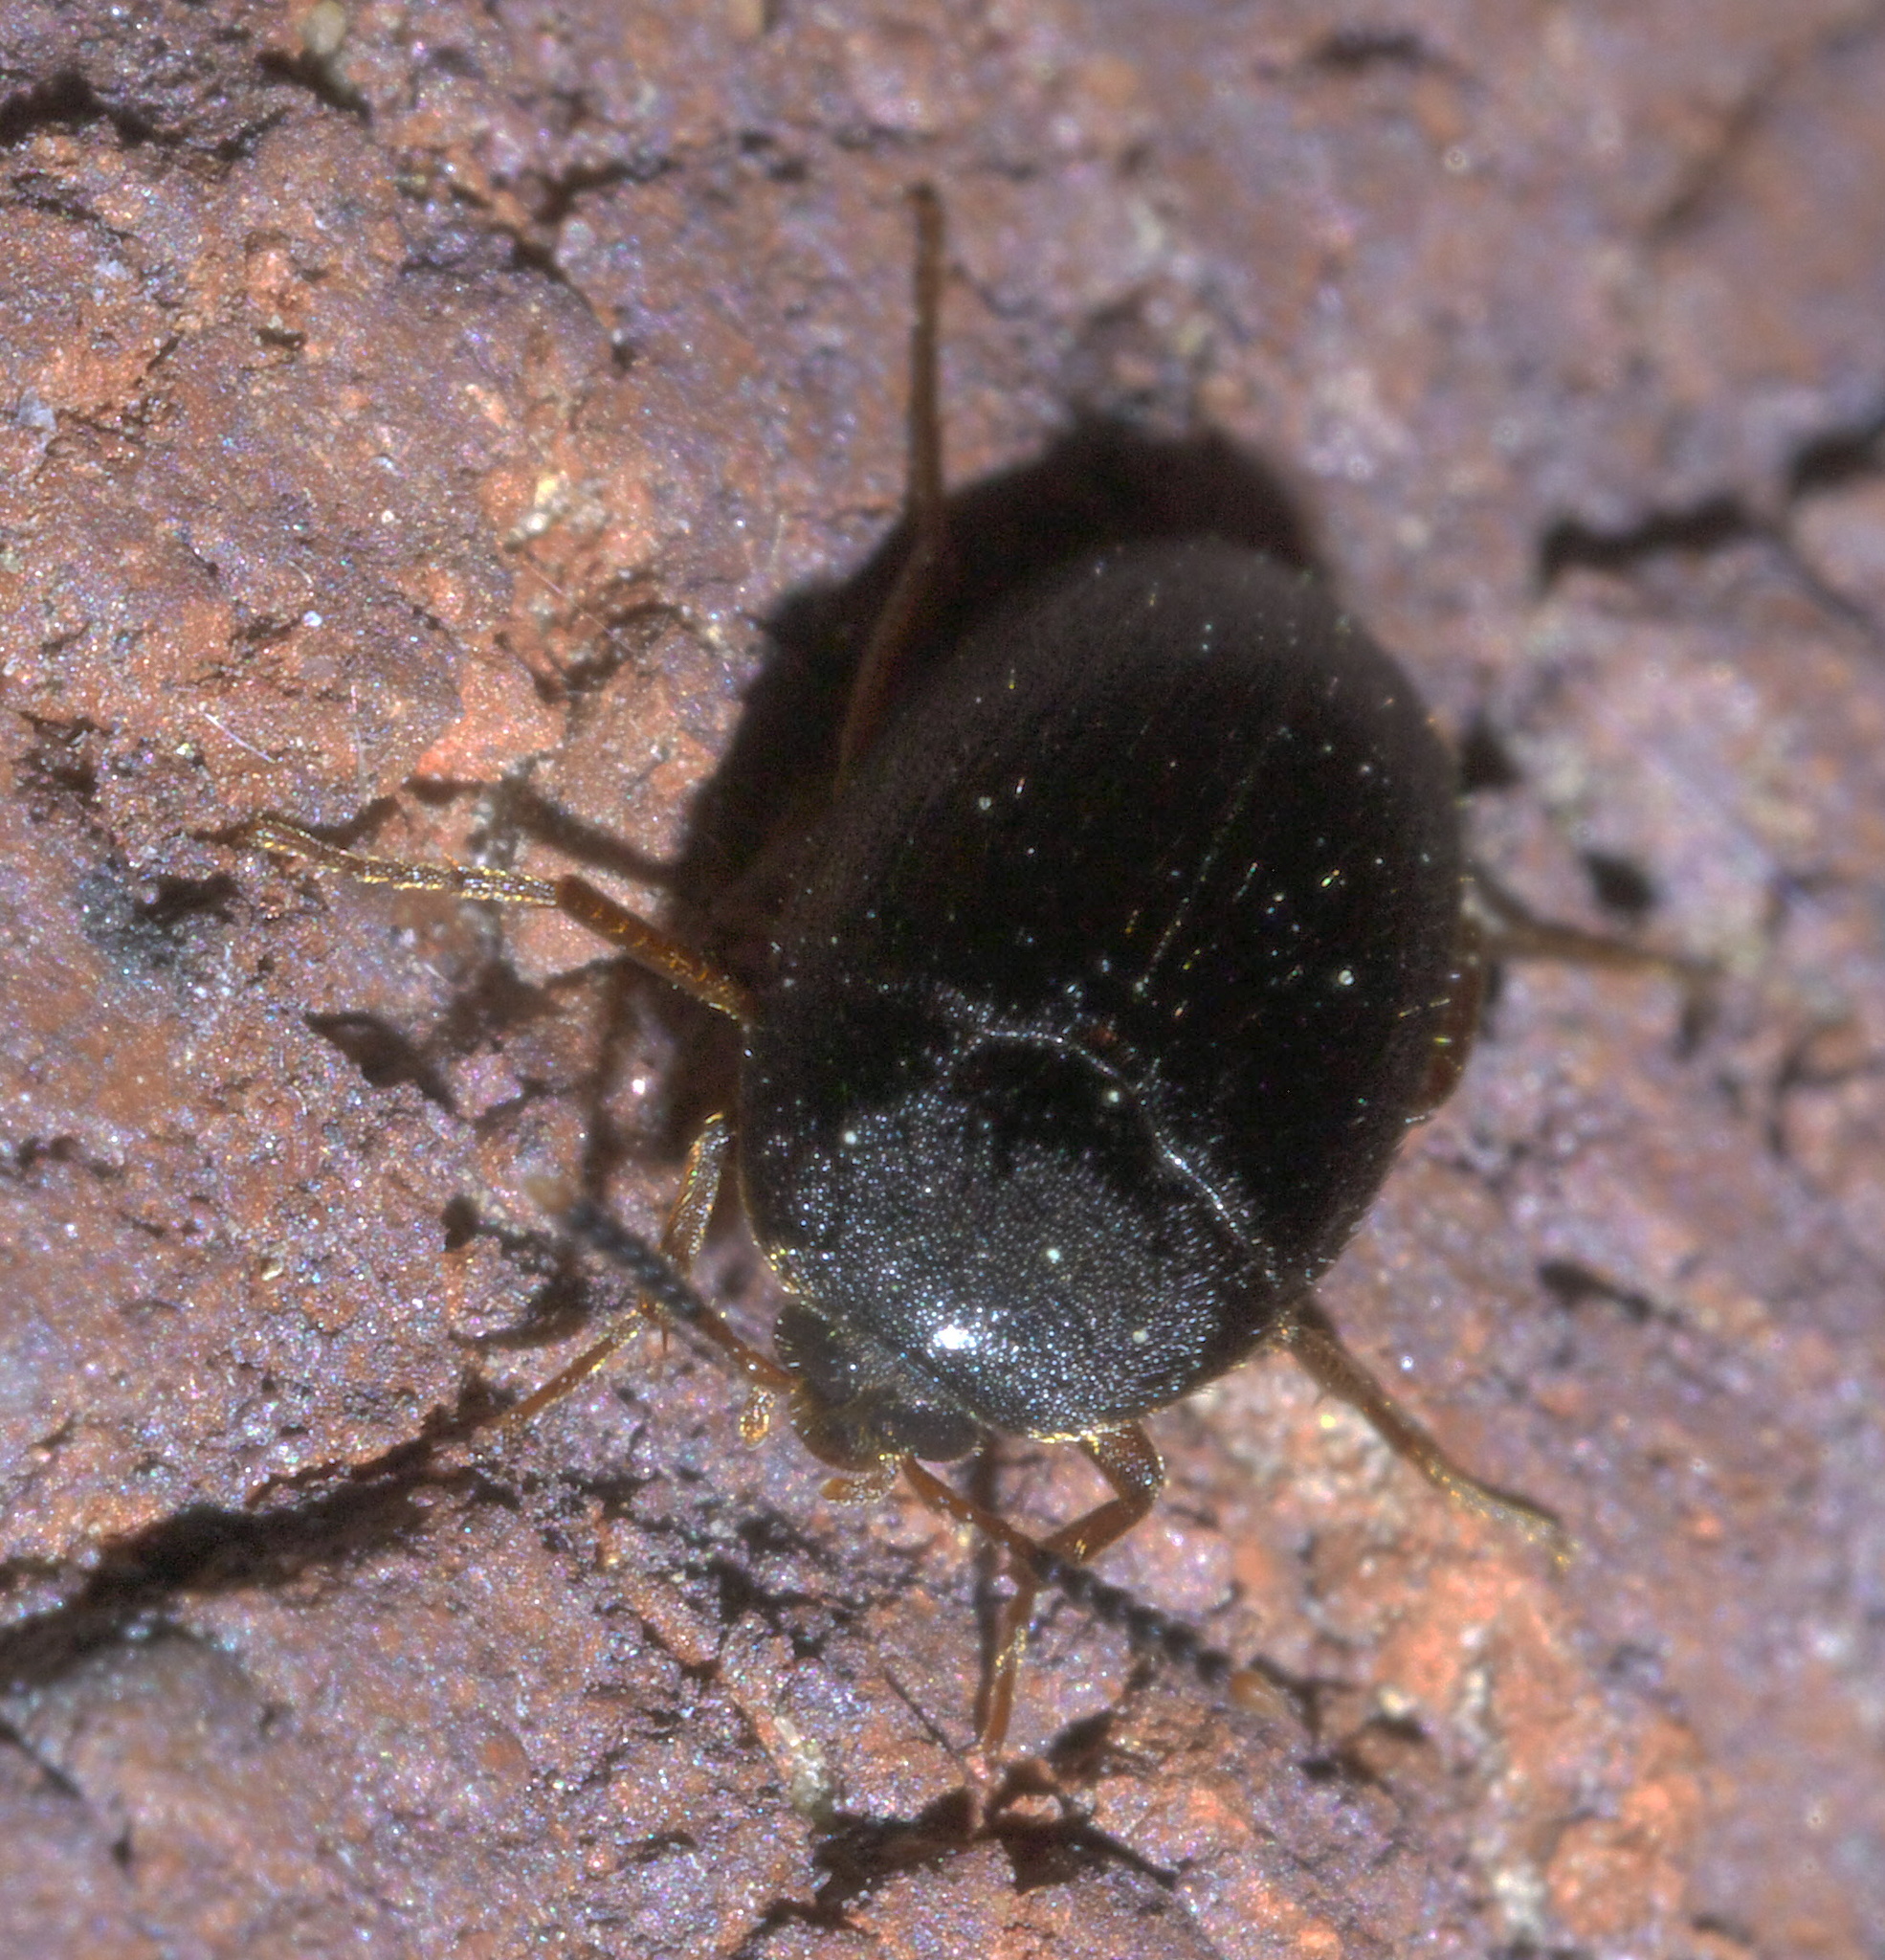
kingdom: Animalia
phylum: Arthropoda
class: Insecta
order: Coleoptera
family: Tetratomidae
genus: Eustrophopsis
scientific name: Eustrophopsis bicolor
